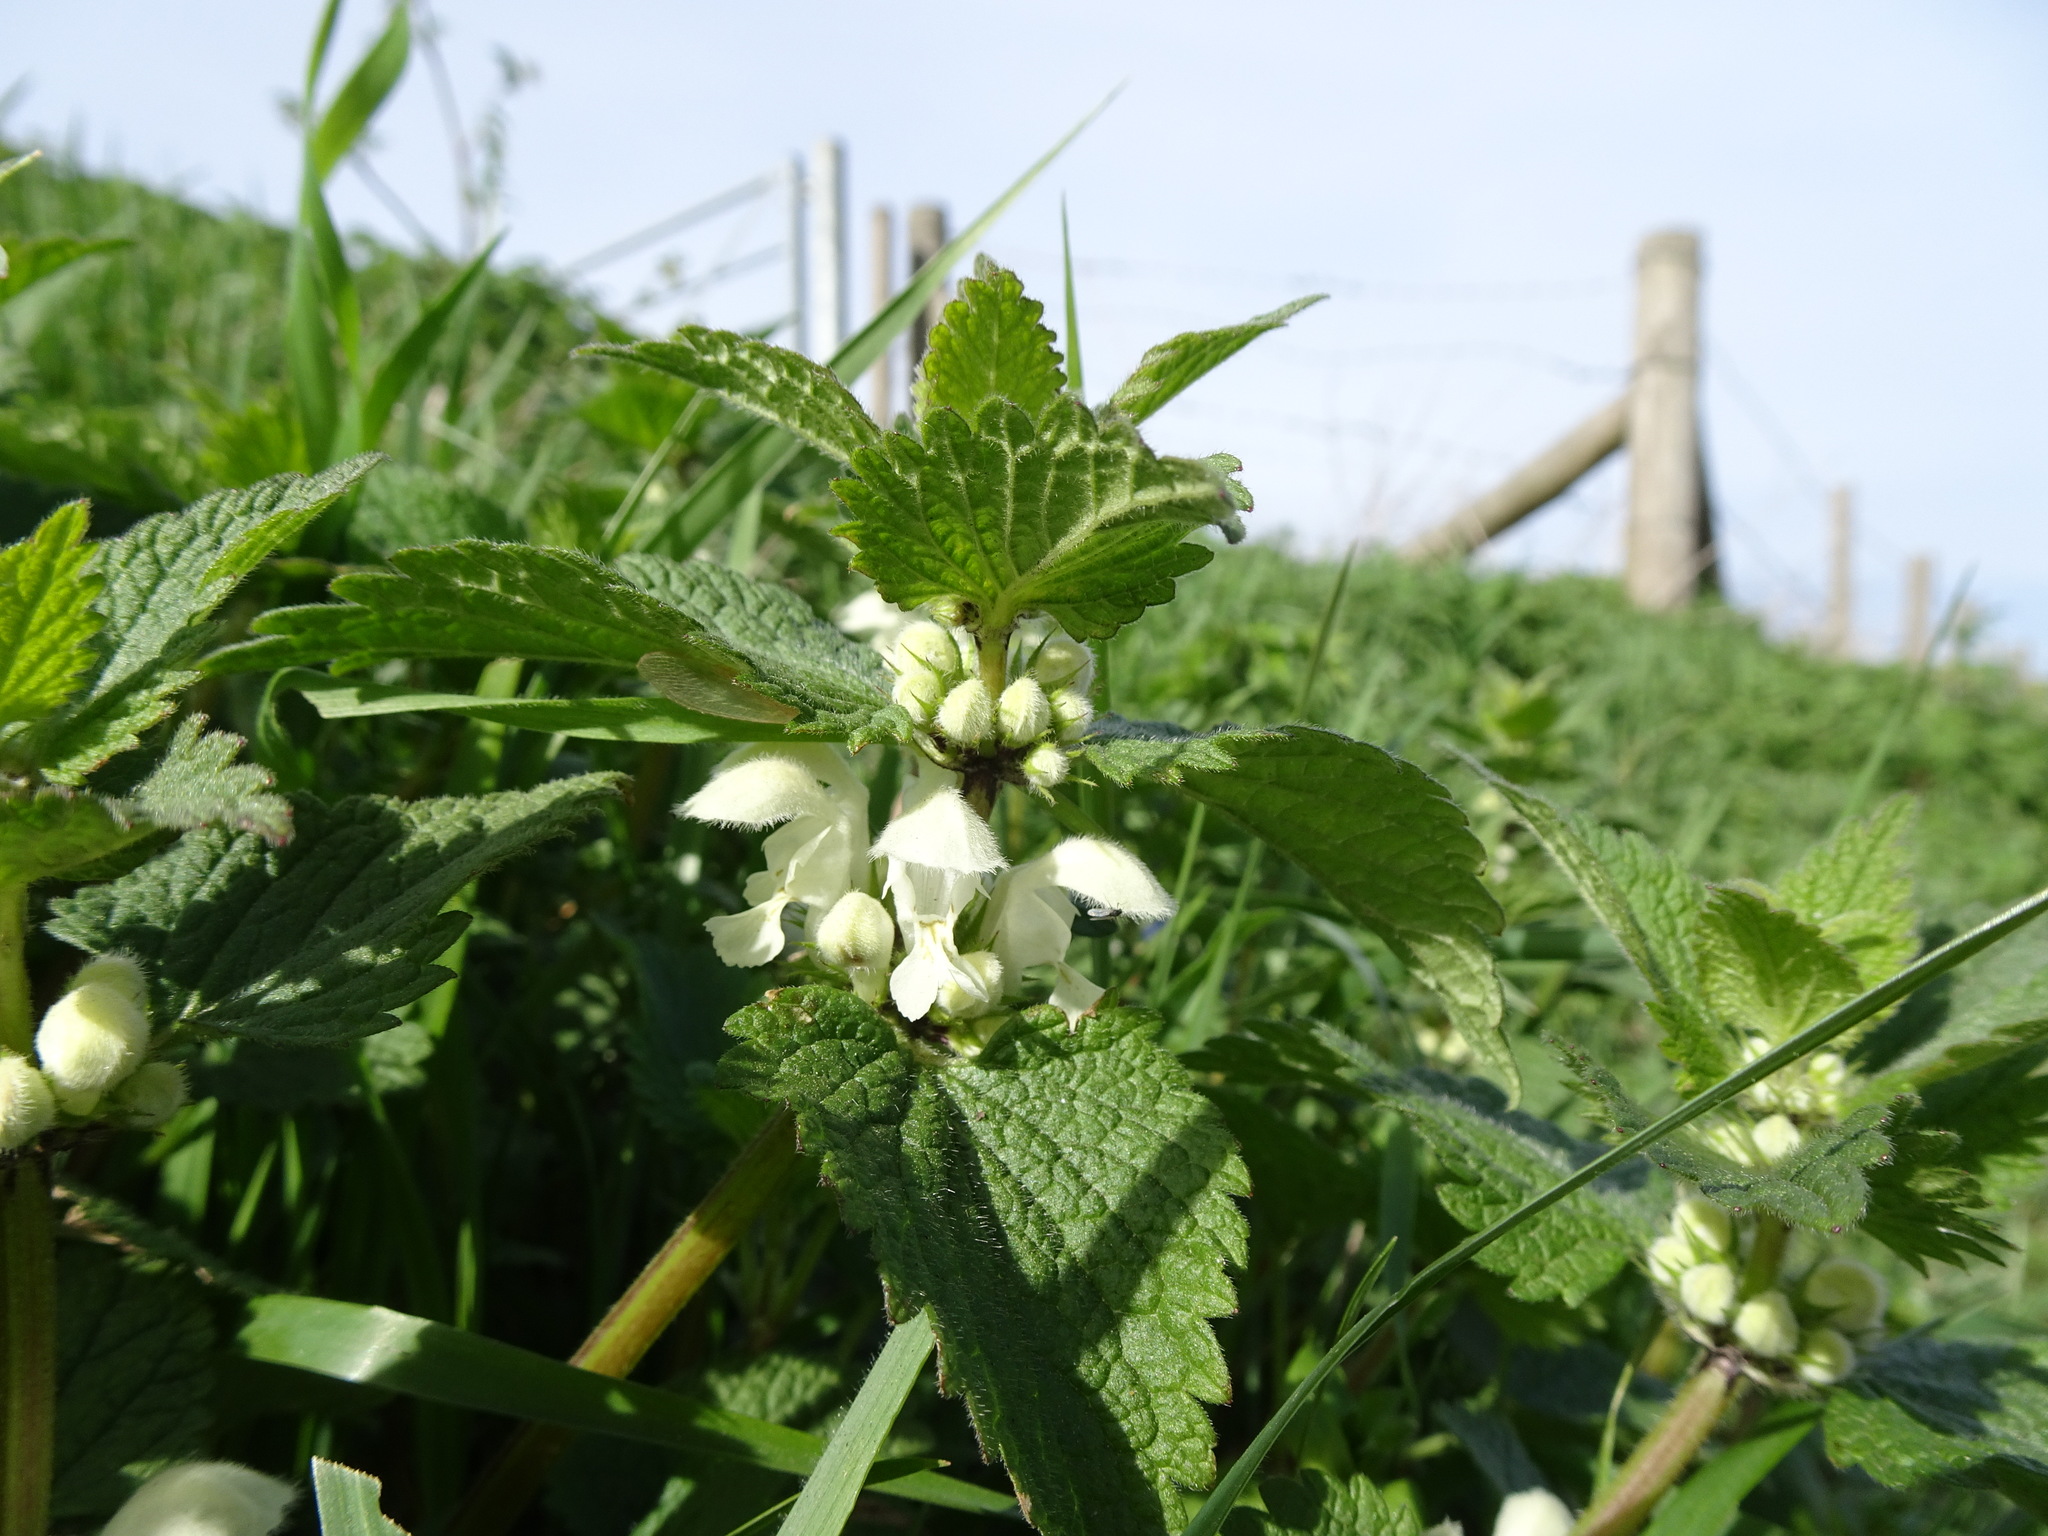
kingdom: Plantae
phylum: Tracheophyta
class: Magnoliopsida
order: Lamiales
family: Lamiaceae
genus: Lamium
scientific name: Lamium album
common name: White dead-nettle
